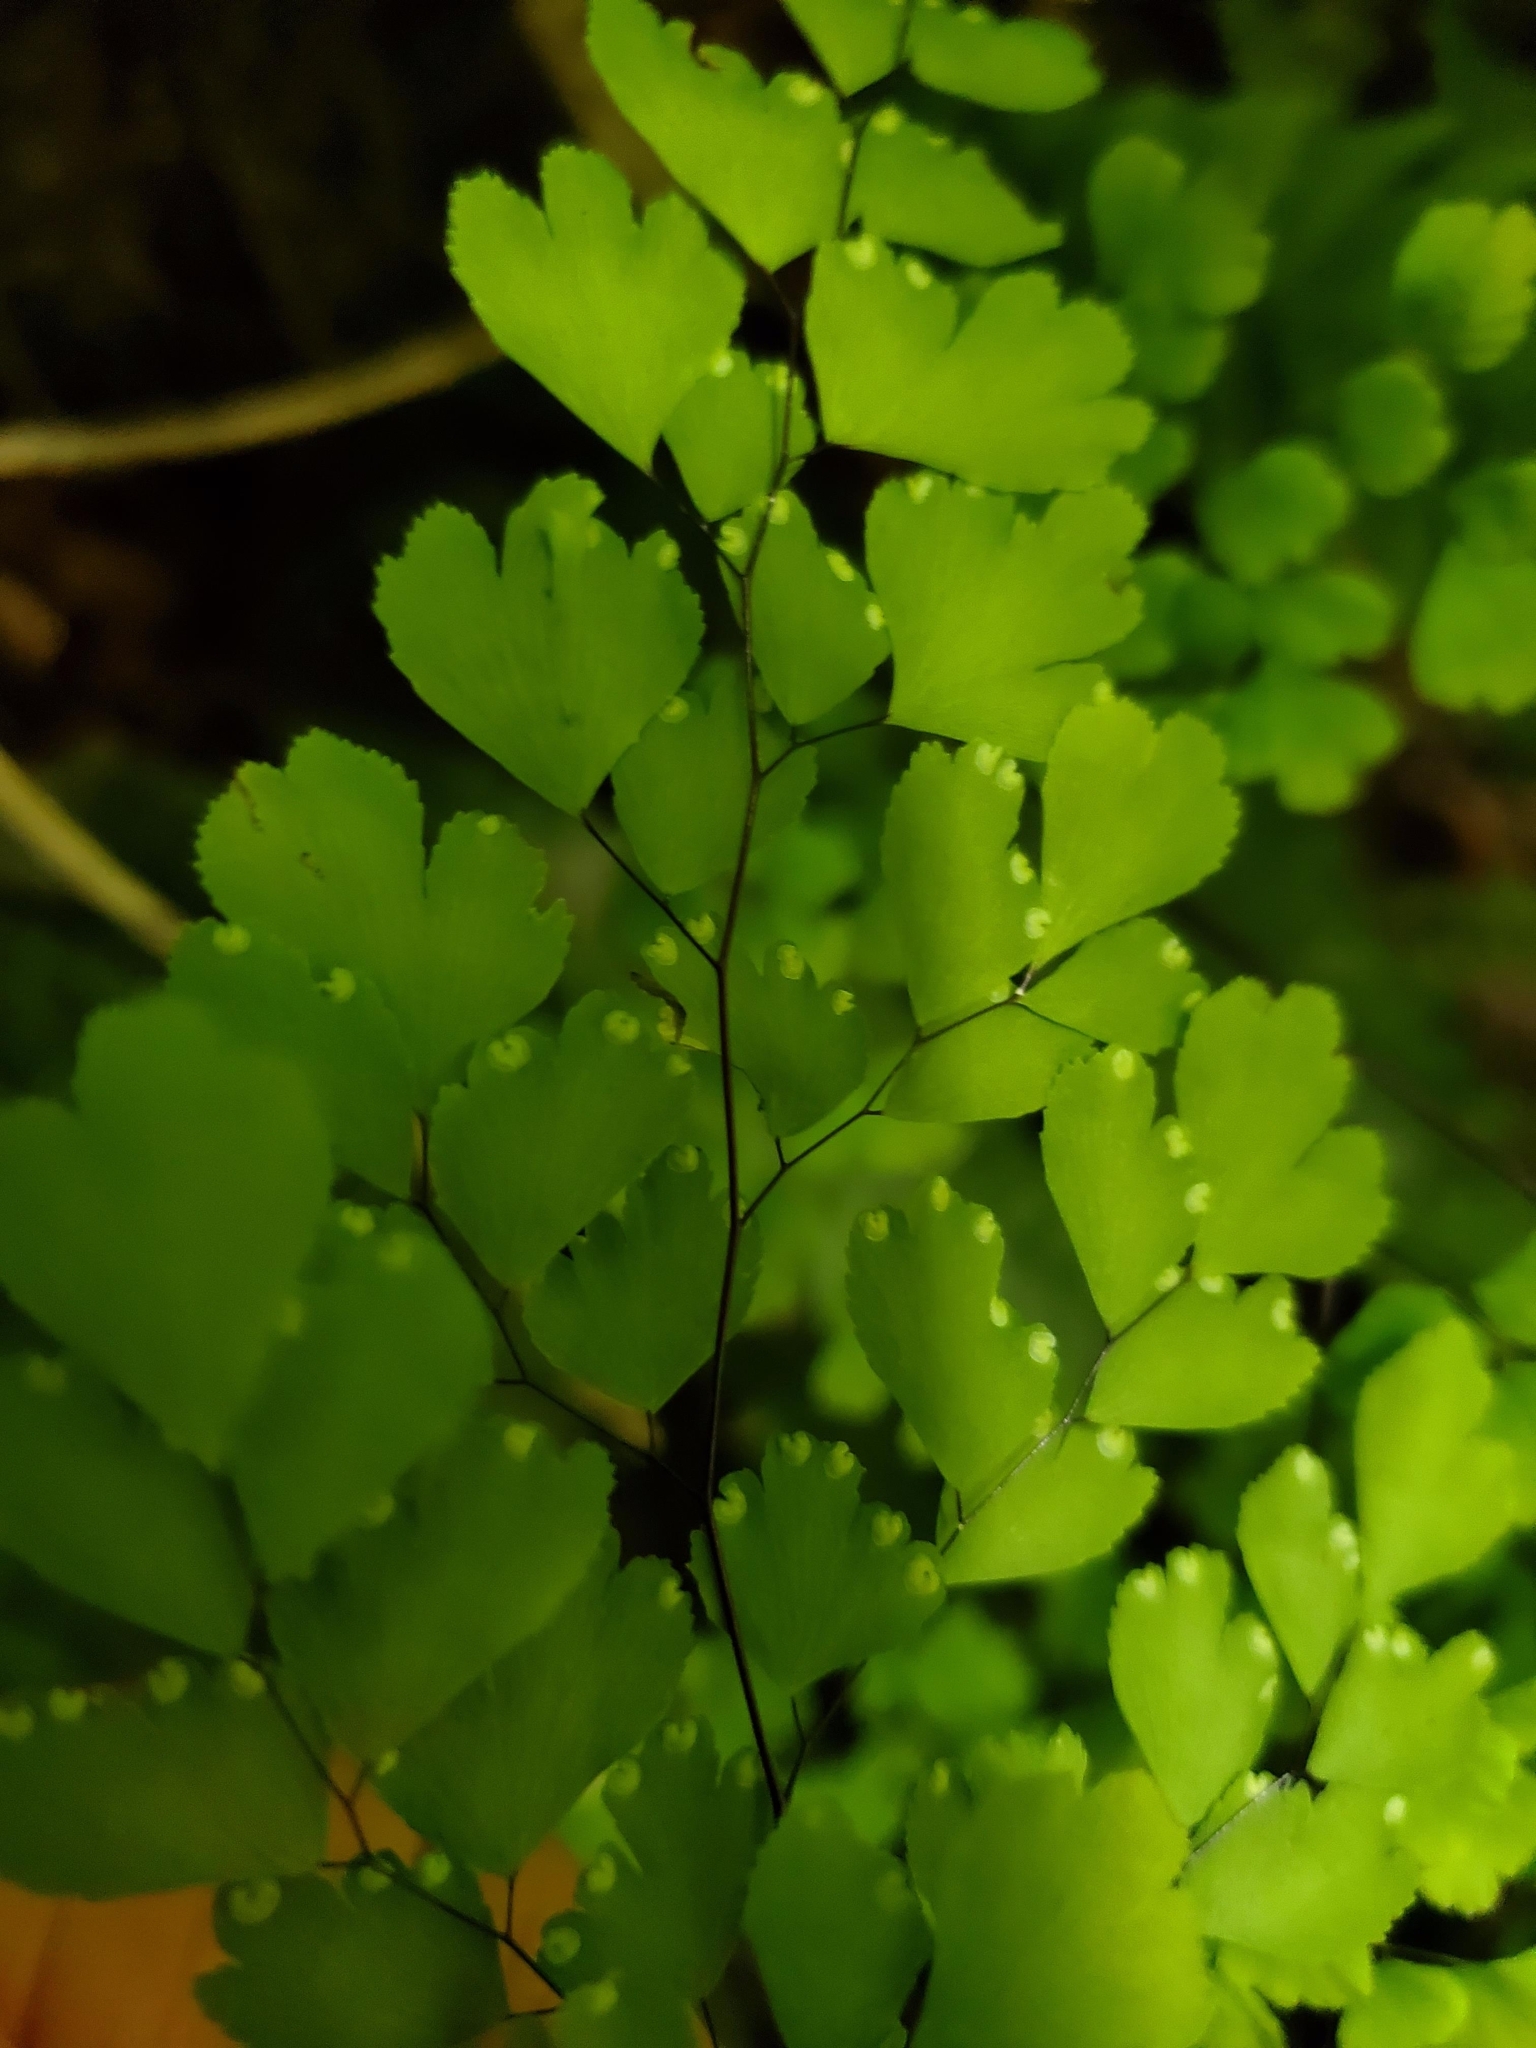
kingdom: Plantae
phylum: Tracheophyta
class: Polypodiopsida
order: Polypodiales
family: Pteridaceae
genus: Adiantum
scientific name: Adiantum raddianum
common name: Delta maidenhair fern
